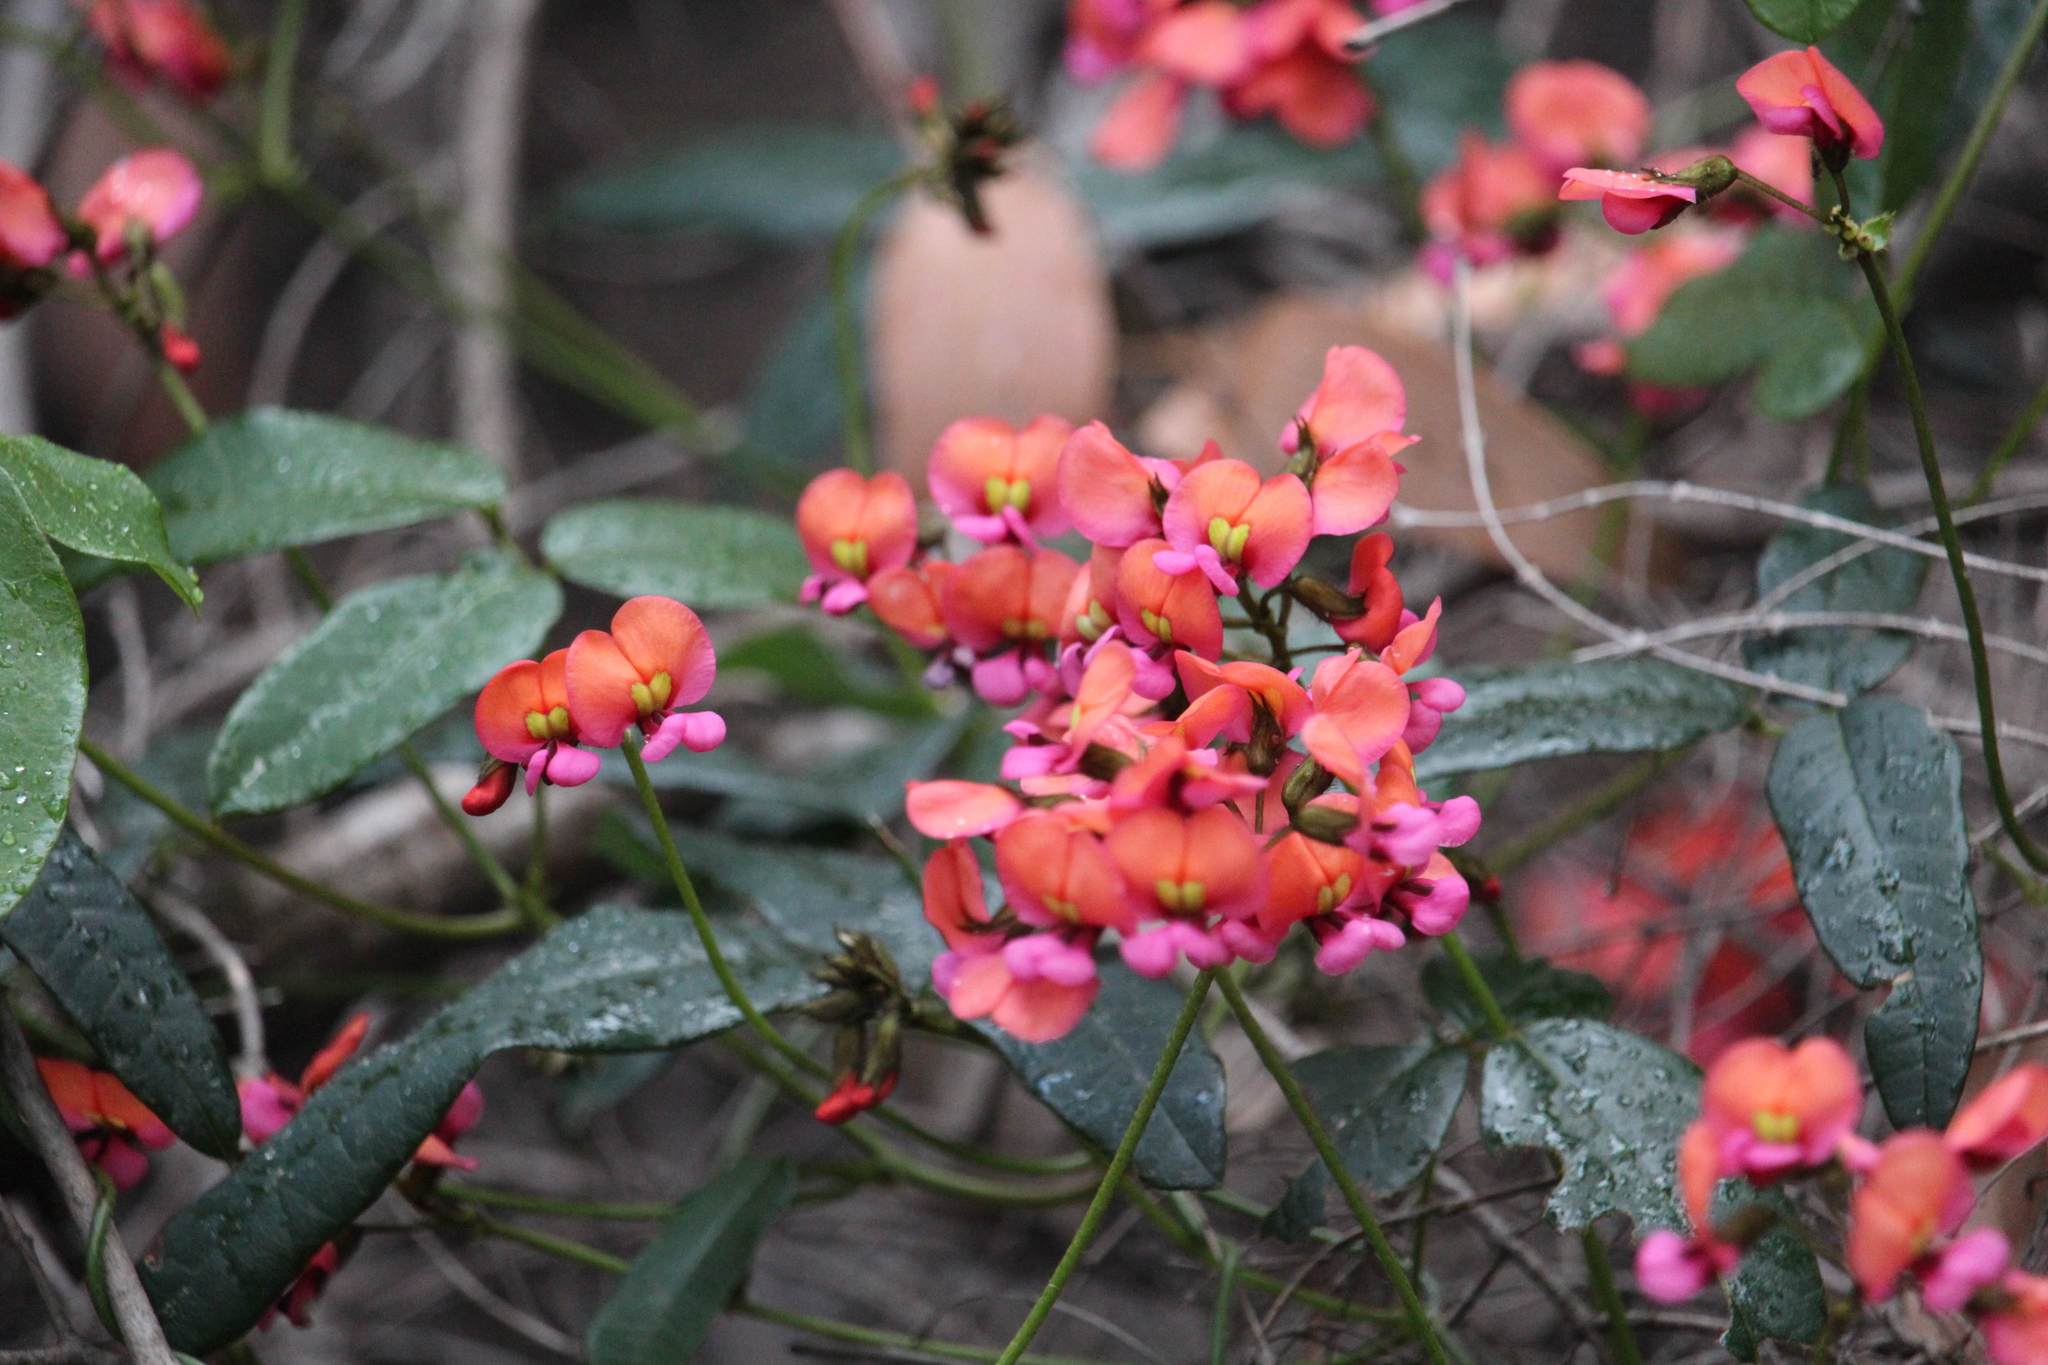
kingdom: Plantae
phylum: Tracheophyta
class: Magnoliopsida
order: Fabales
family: Fabaceae
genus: Kennedia
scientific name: Kennedia coccinea
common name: Coralvine
